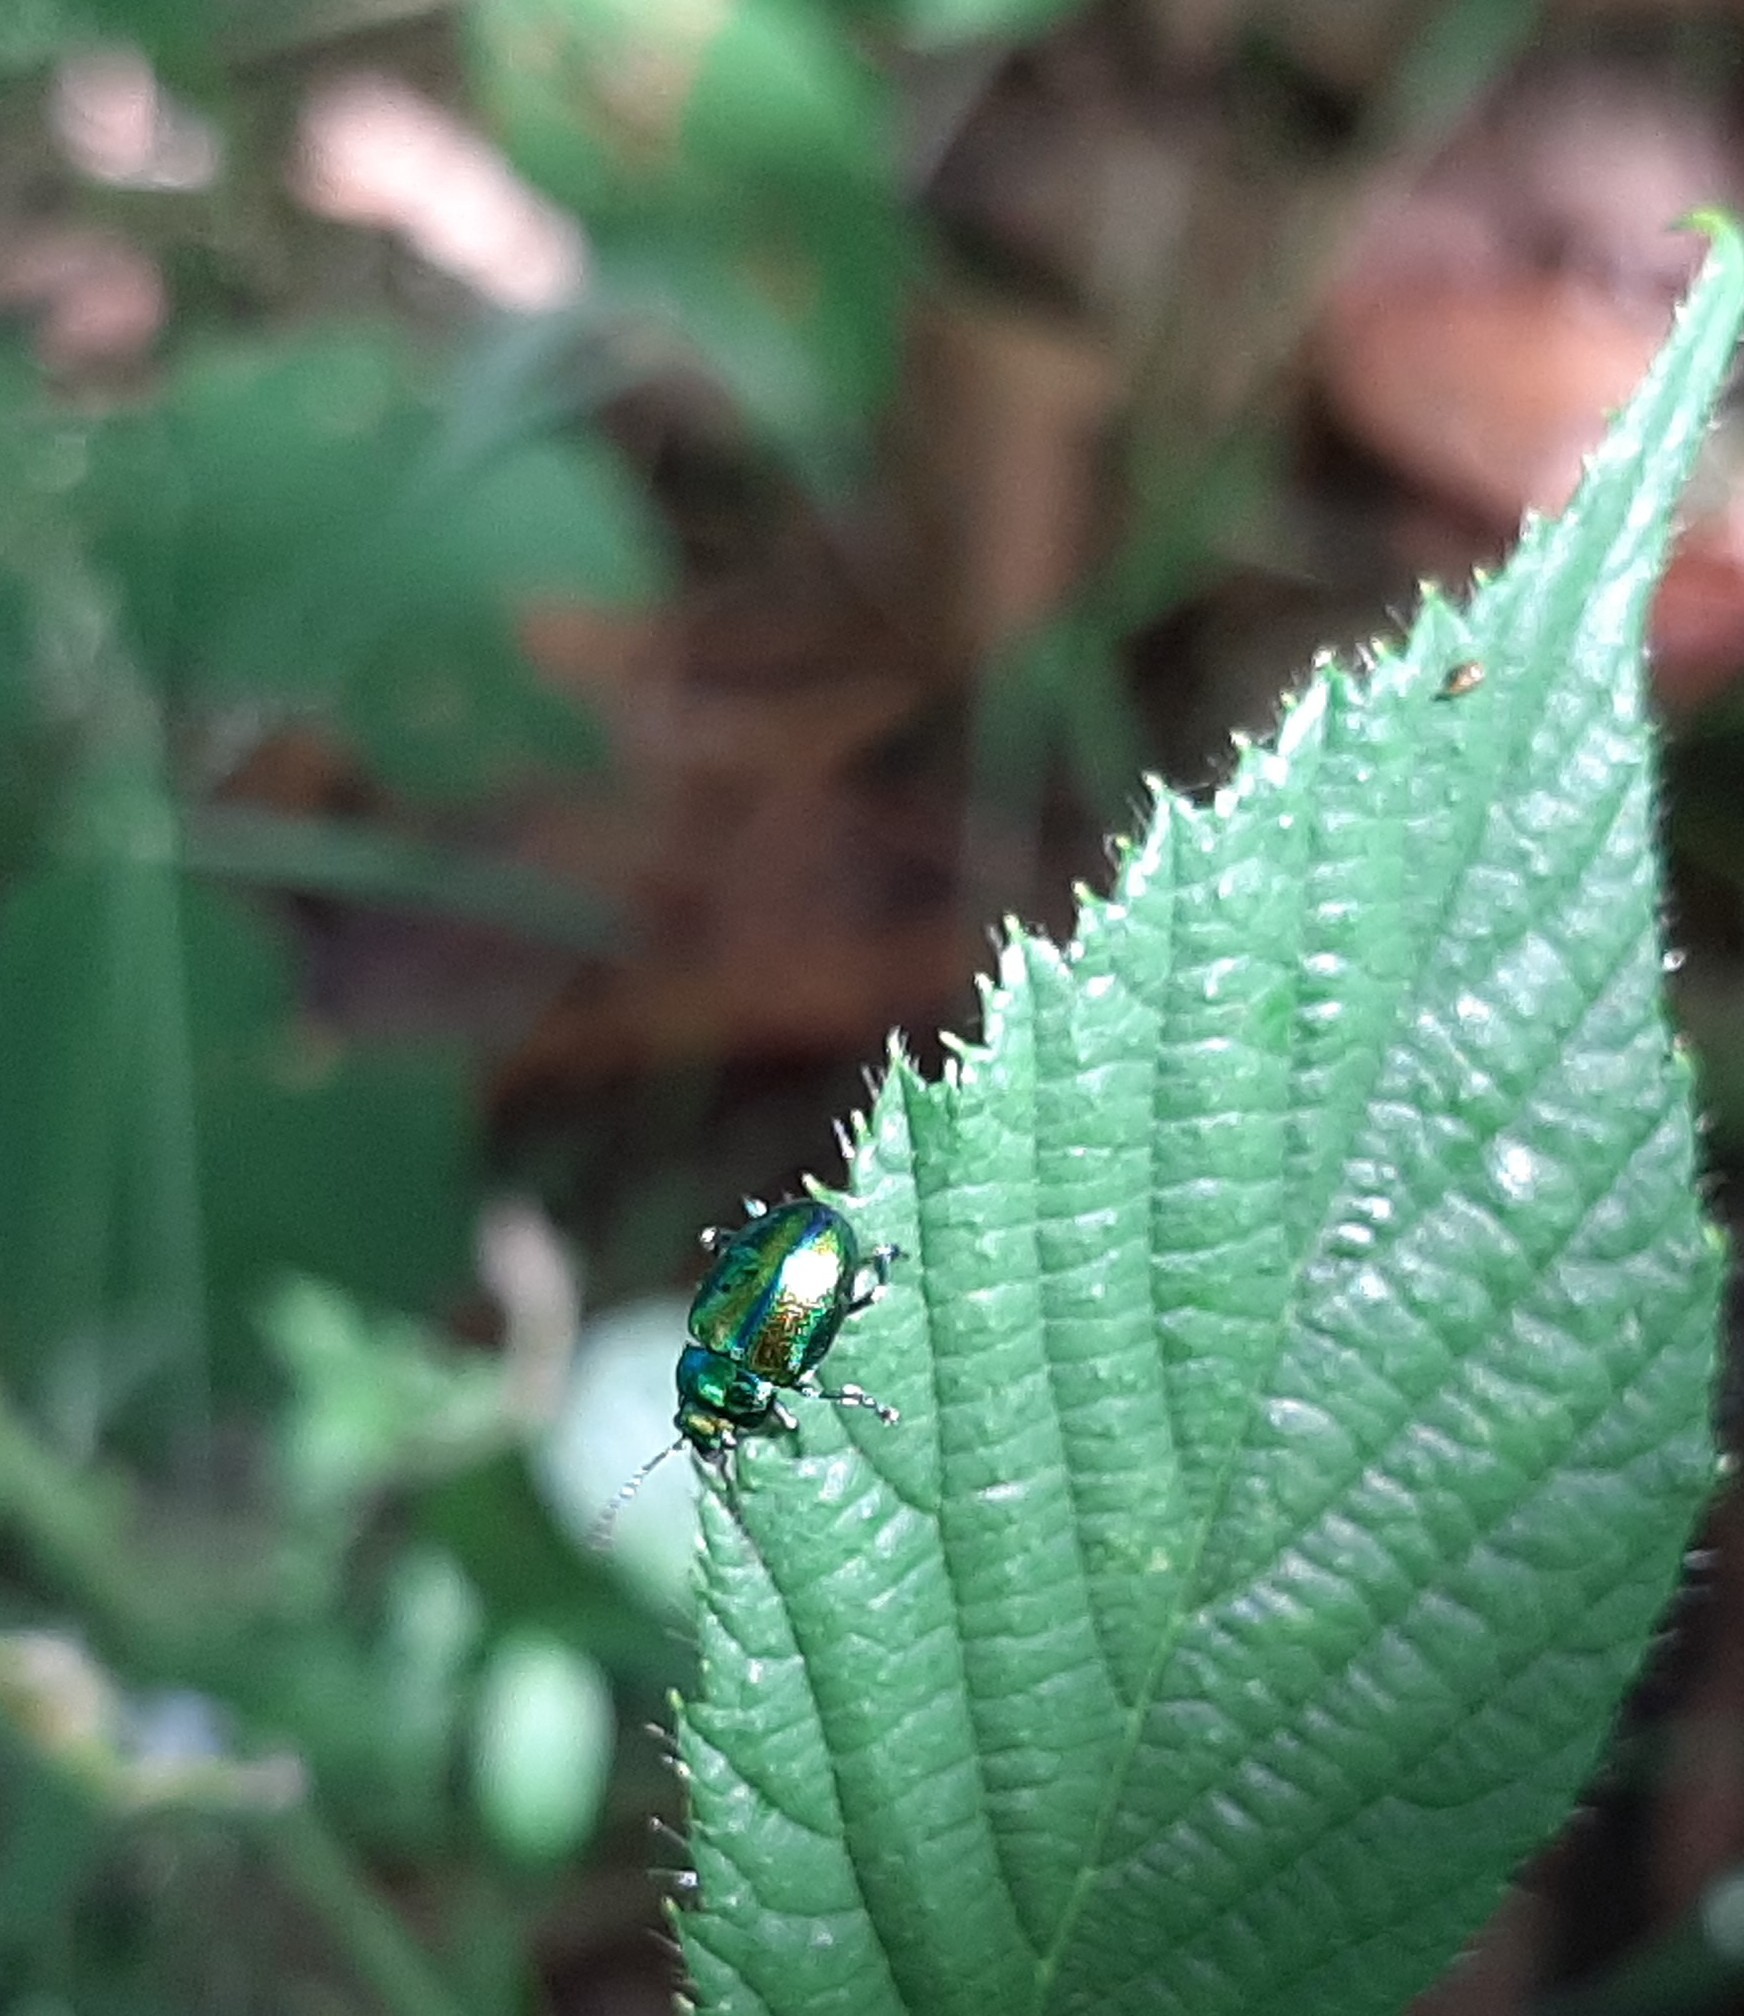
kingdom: Animalia
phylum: Arthropoda
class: Insecta
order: Coleoptera
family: Chrysomelidae
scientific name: Chrysomelidae
